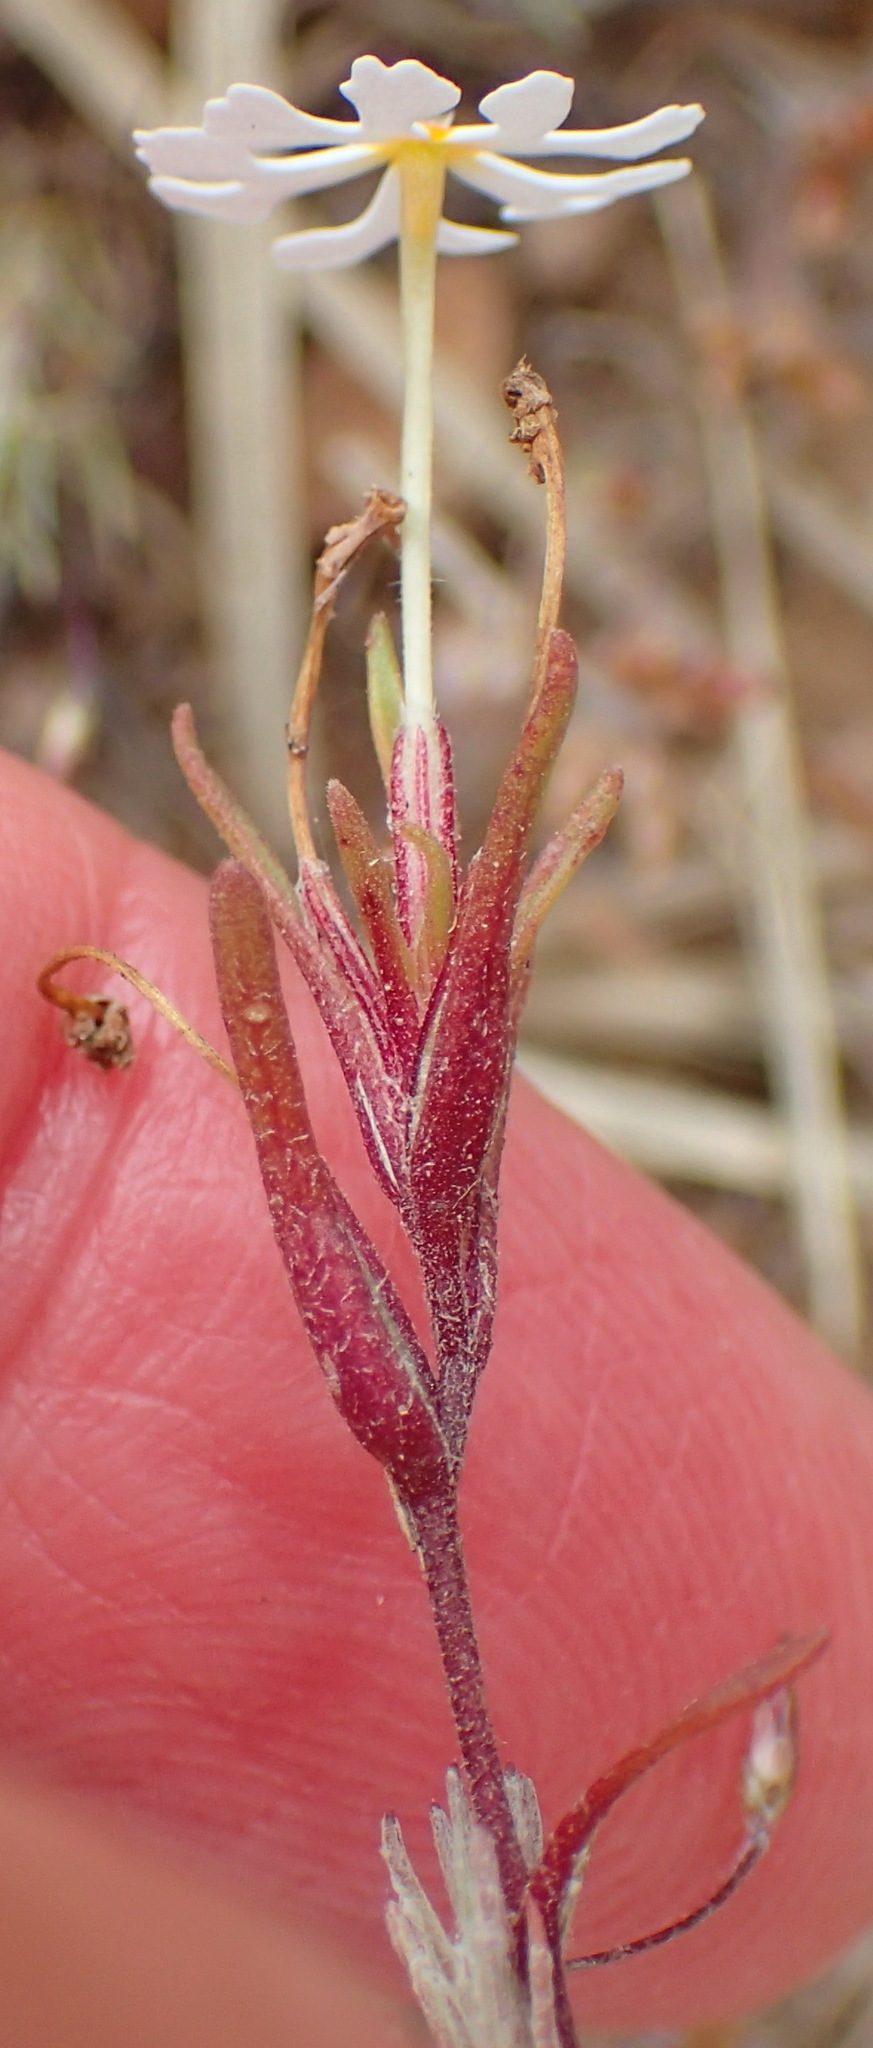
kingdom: Plantae
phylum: Tracheophyta
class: Magnoliopsida
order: Lamiales
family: Scrophulariaceae
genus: Zaluzianskya
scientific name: Zaluzianskya affinis
